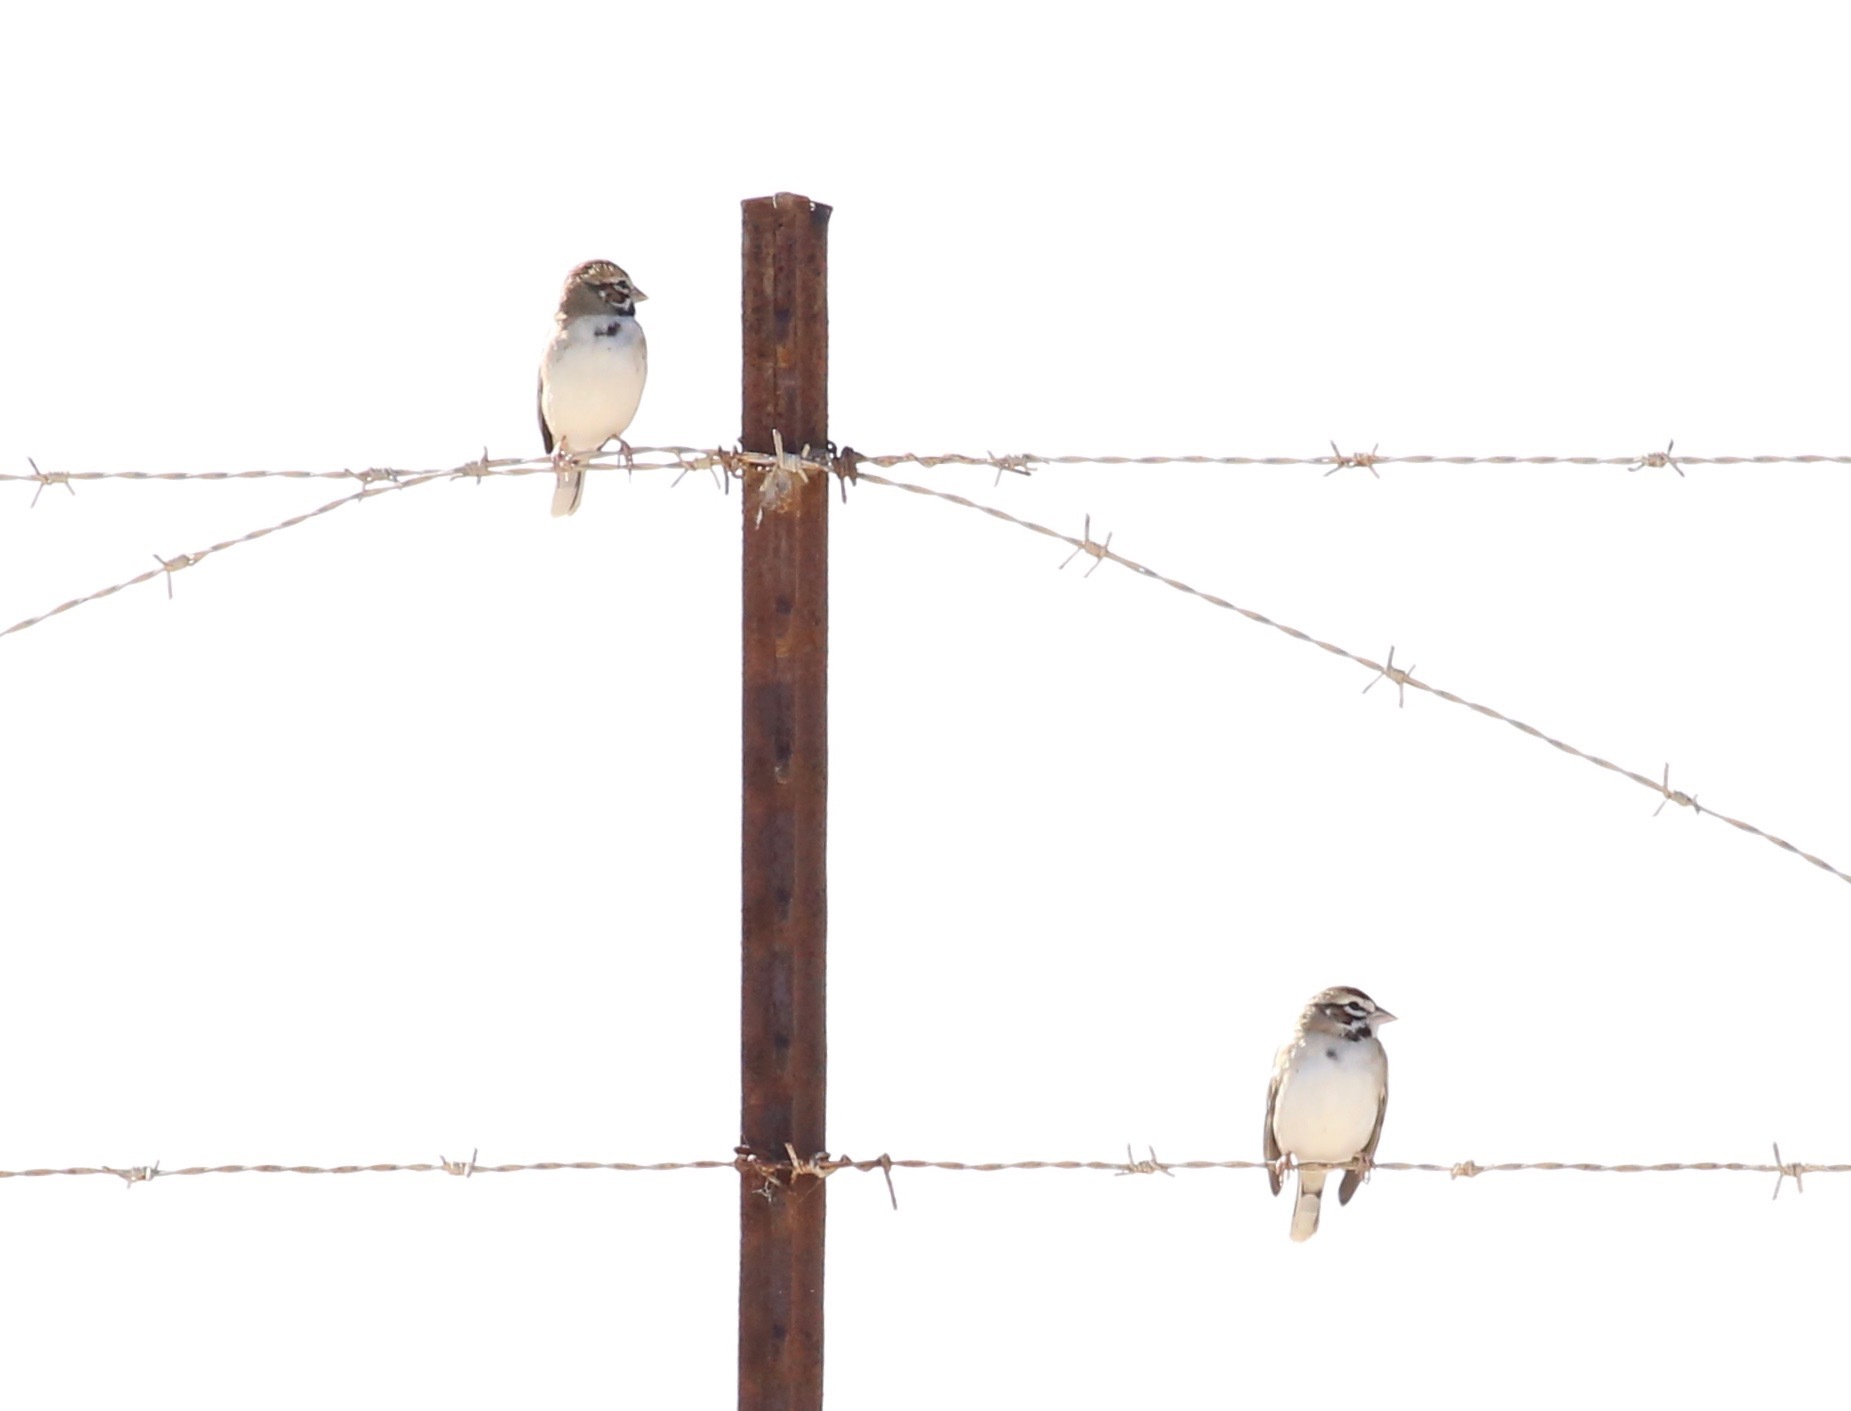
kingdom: Animalia
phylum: Chordata
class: Aves
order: Passeriformes
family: Passerellidae
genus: Chondestes
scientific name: Chondestes grammacus
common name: Lark sparrow
